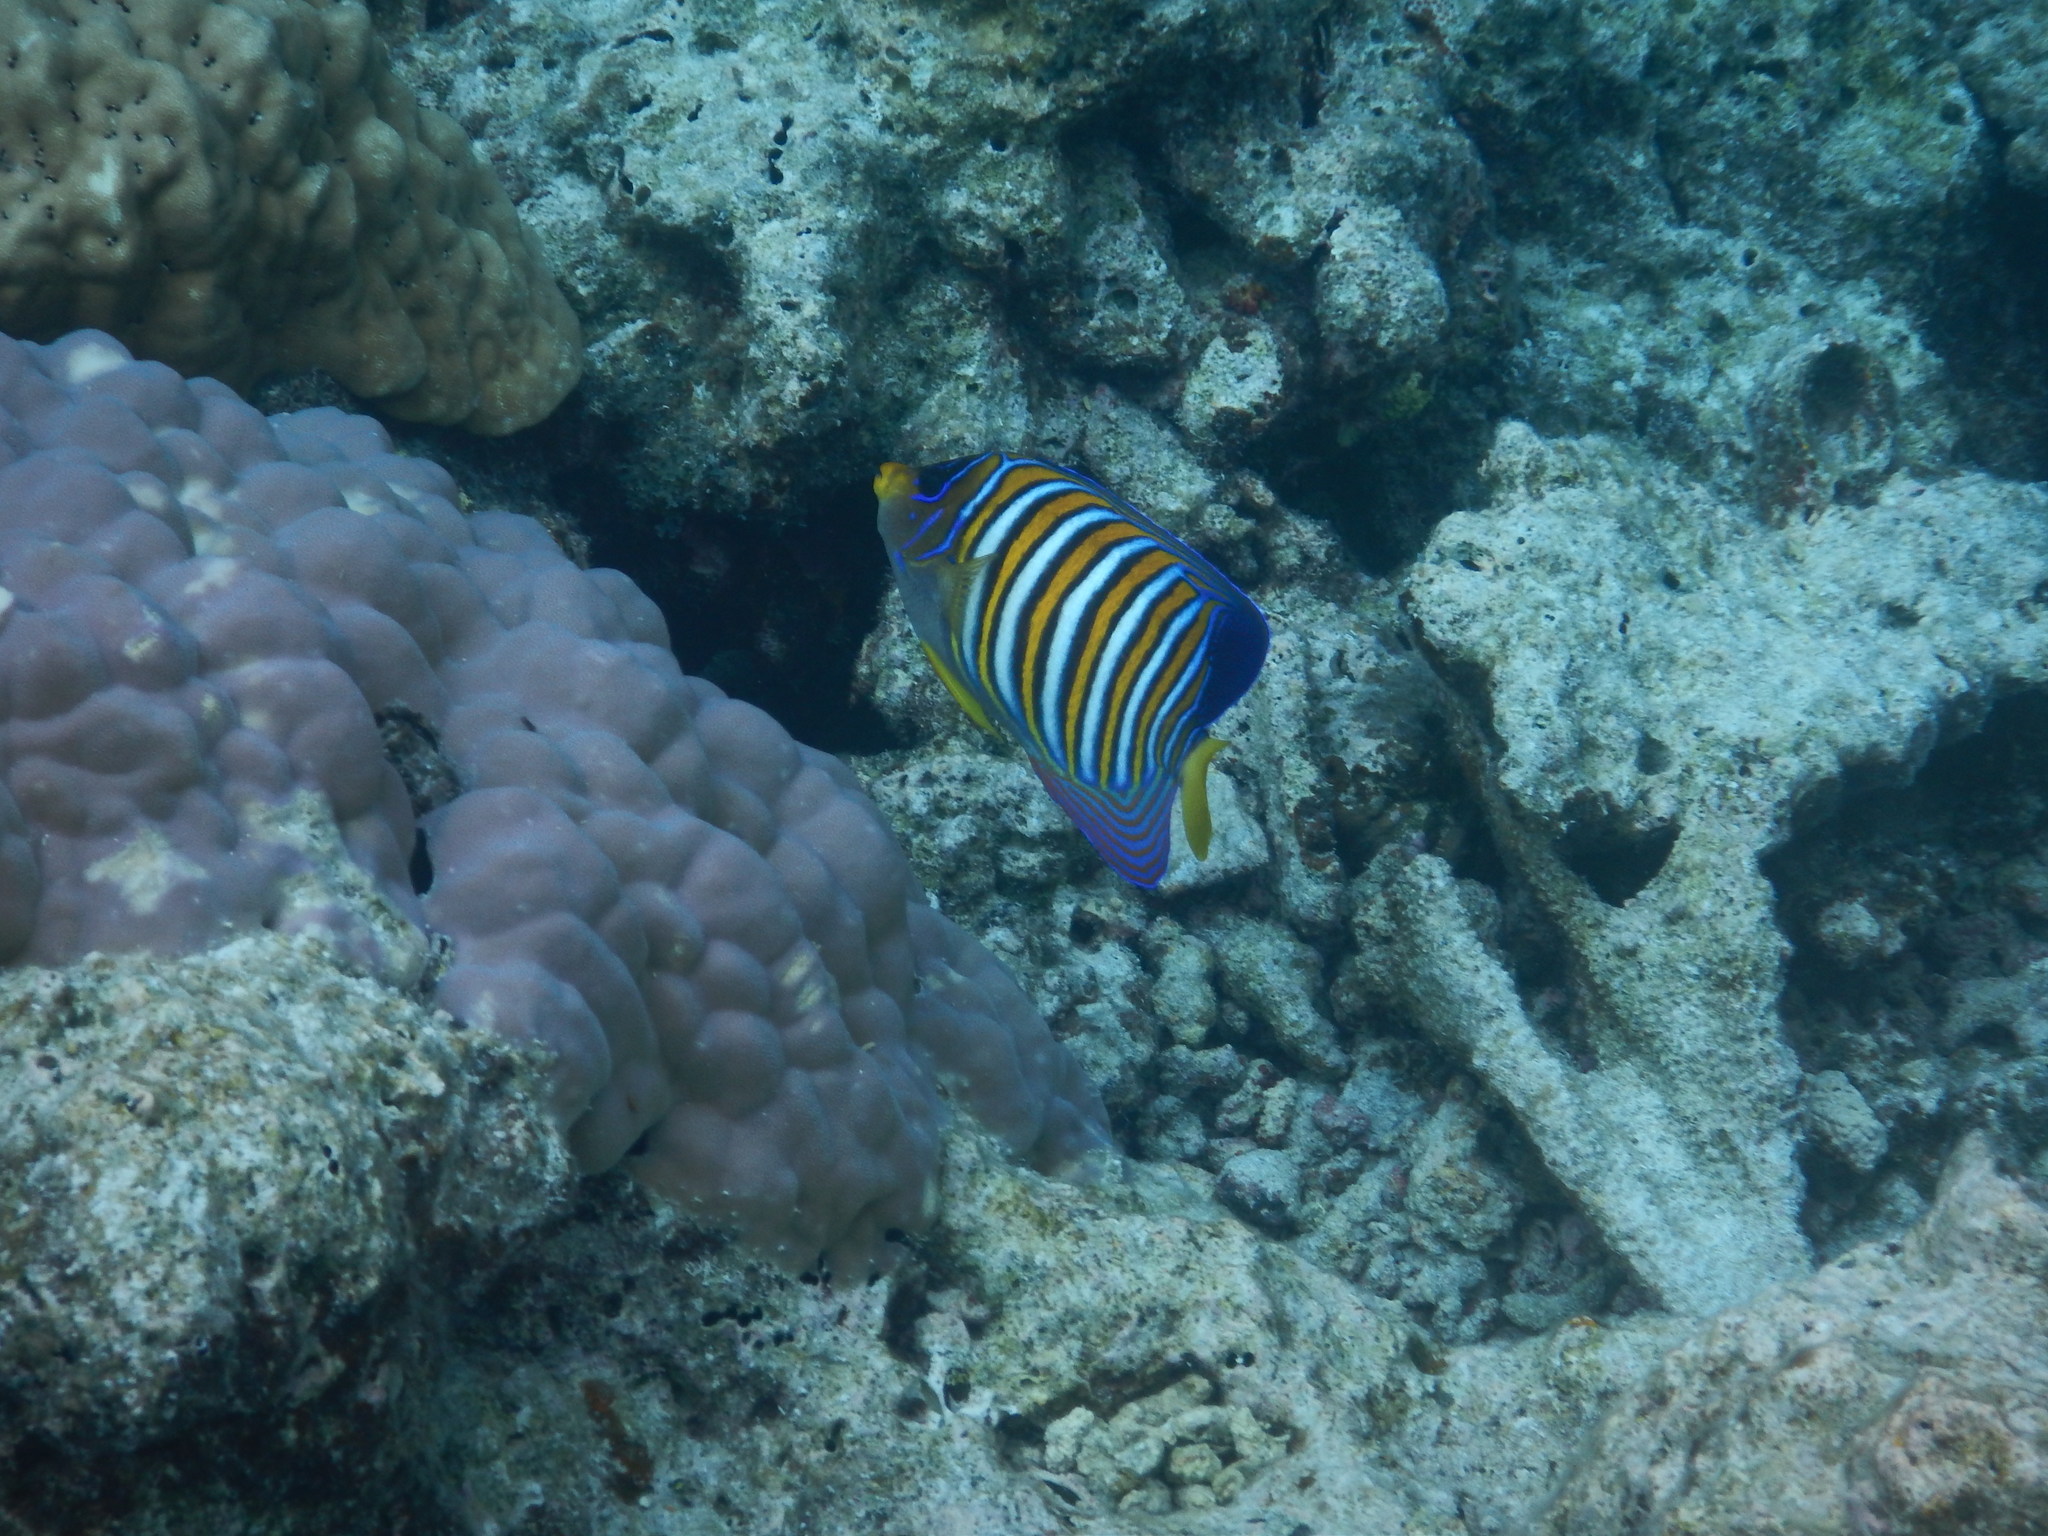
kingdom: Animalia
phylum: Chordata
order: Perciformes
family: Pomacanthidae
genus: Pygoplites
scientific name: Pygoplites diacanthus
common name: Regal angelfish
